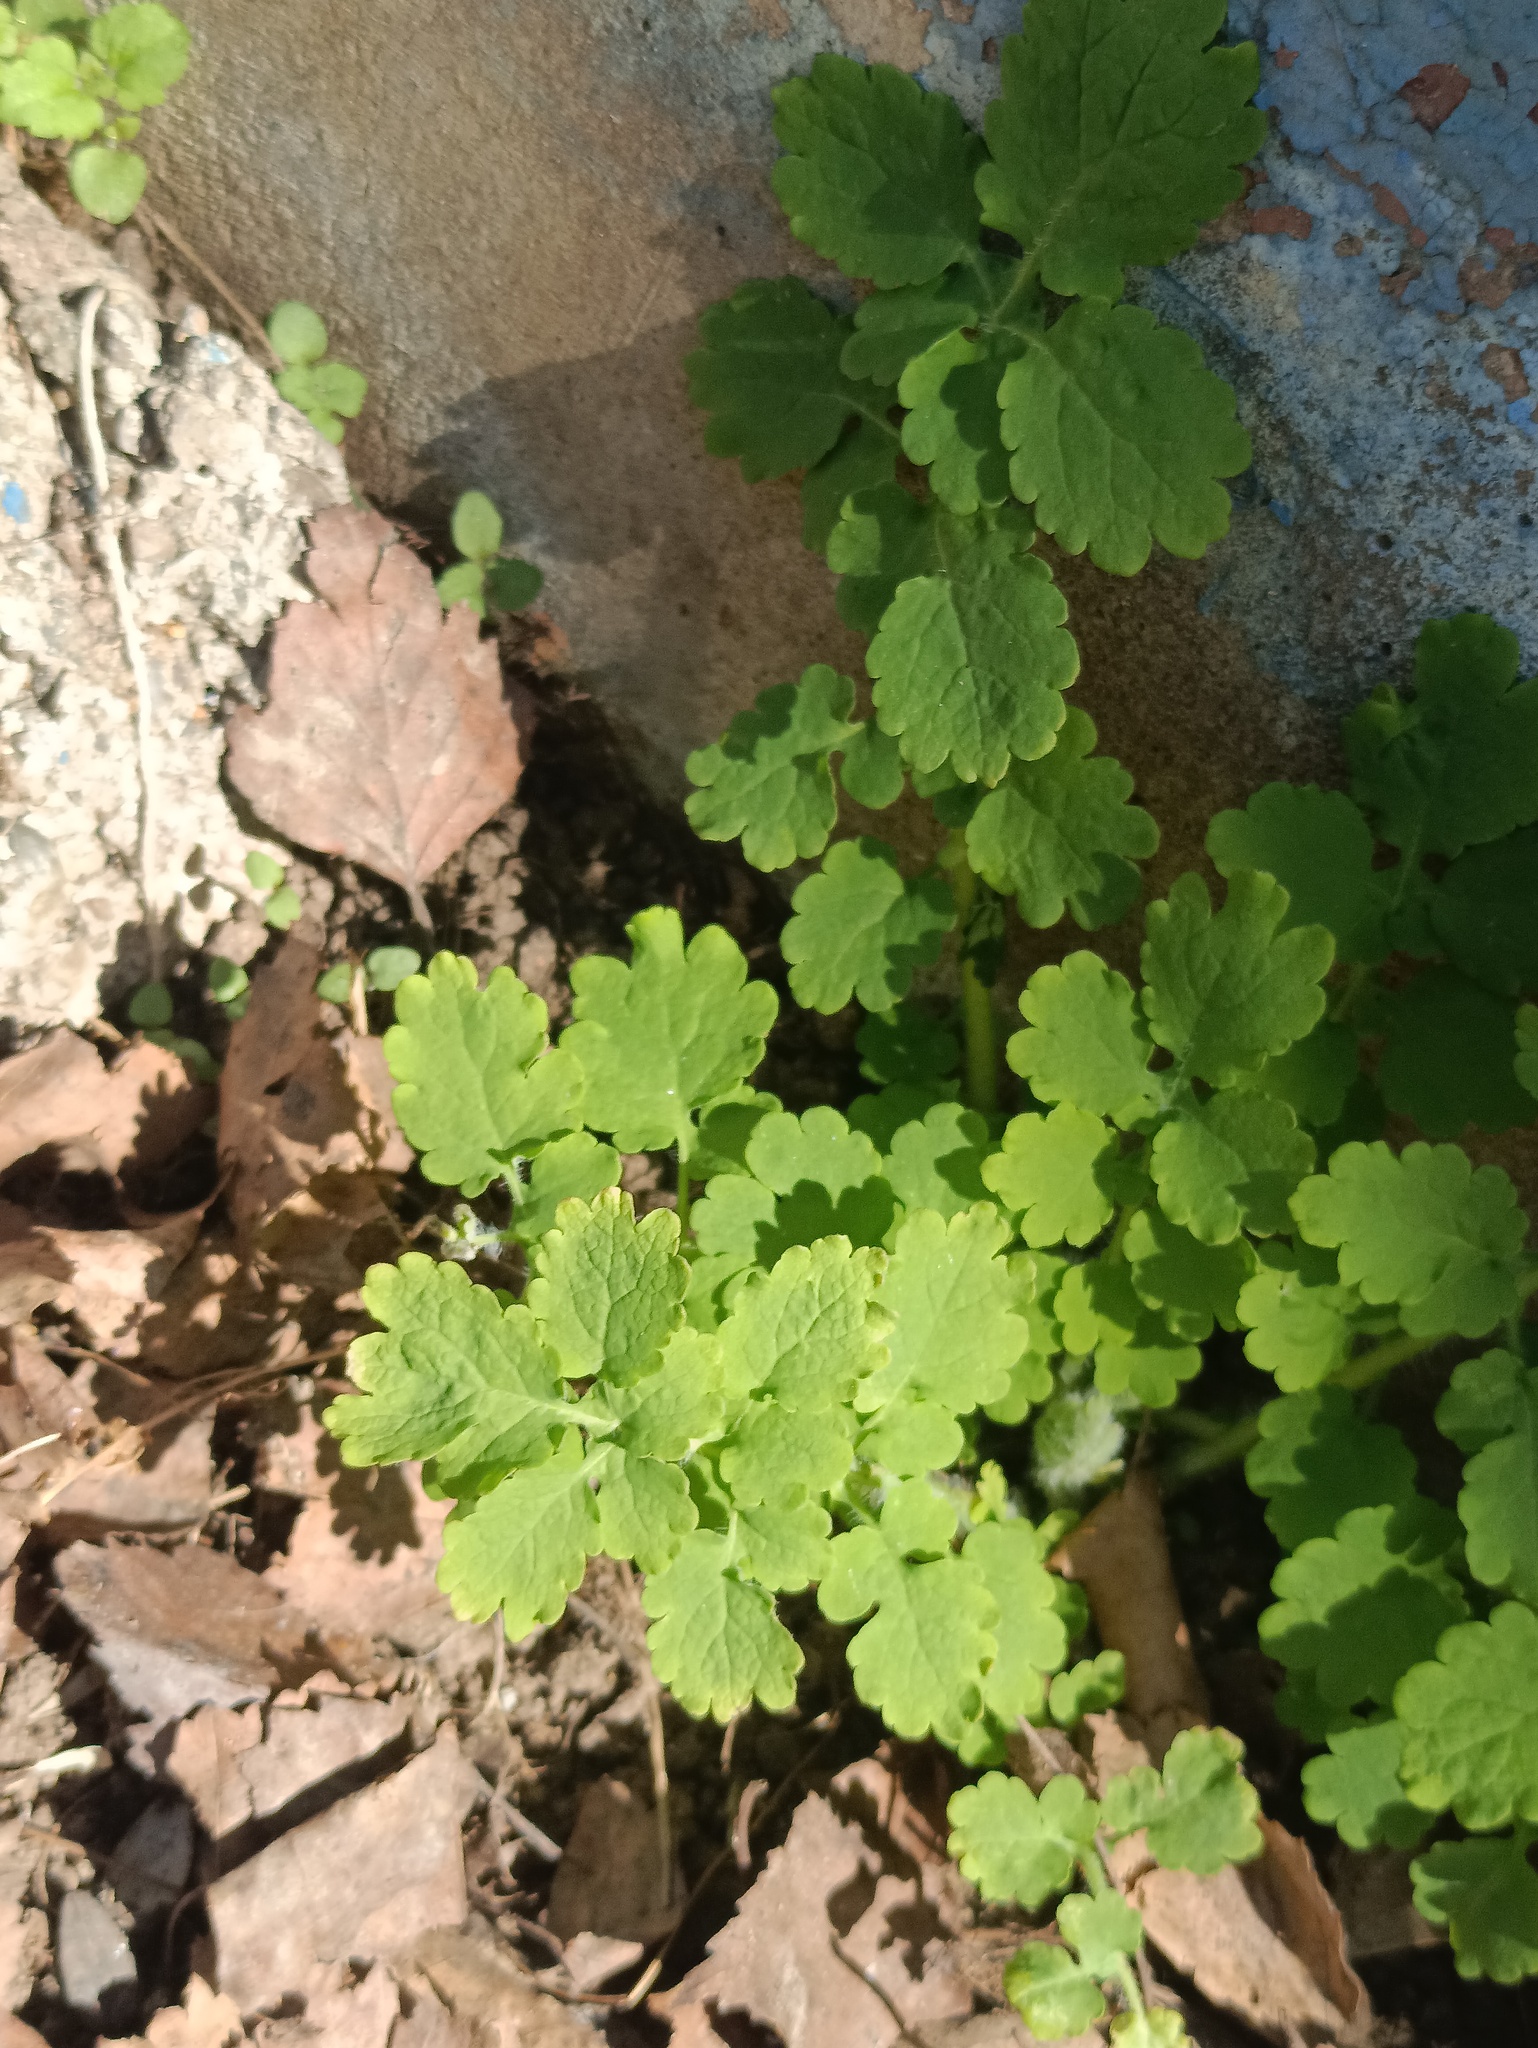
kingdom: Plantae
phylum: Tracheophyta
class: Magnoliopsida
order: Ranunculales
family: Papaveraceae
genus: Chelidonium
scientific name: Chelidonium majus
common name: Greater celandine
